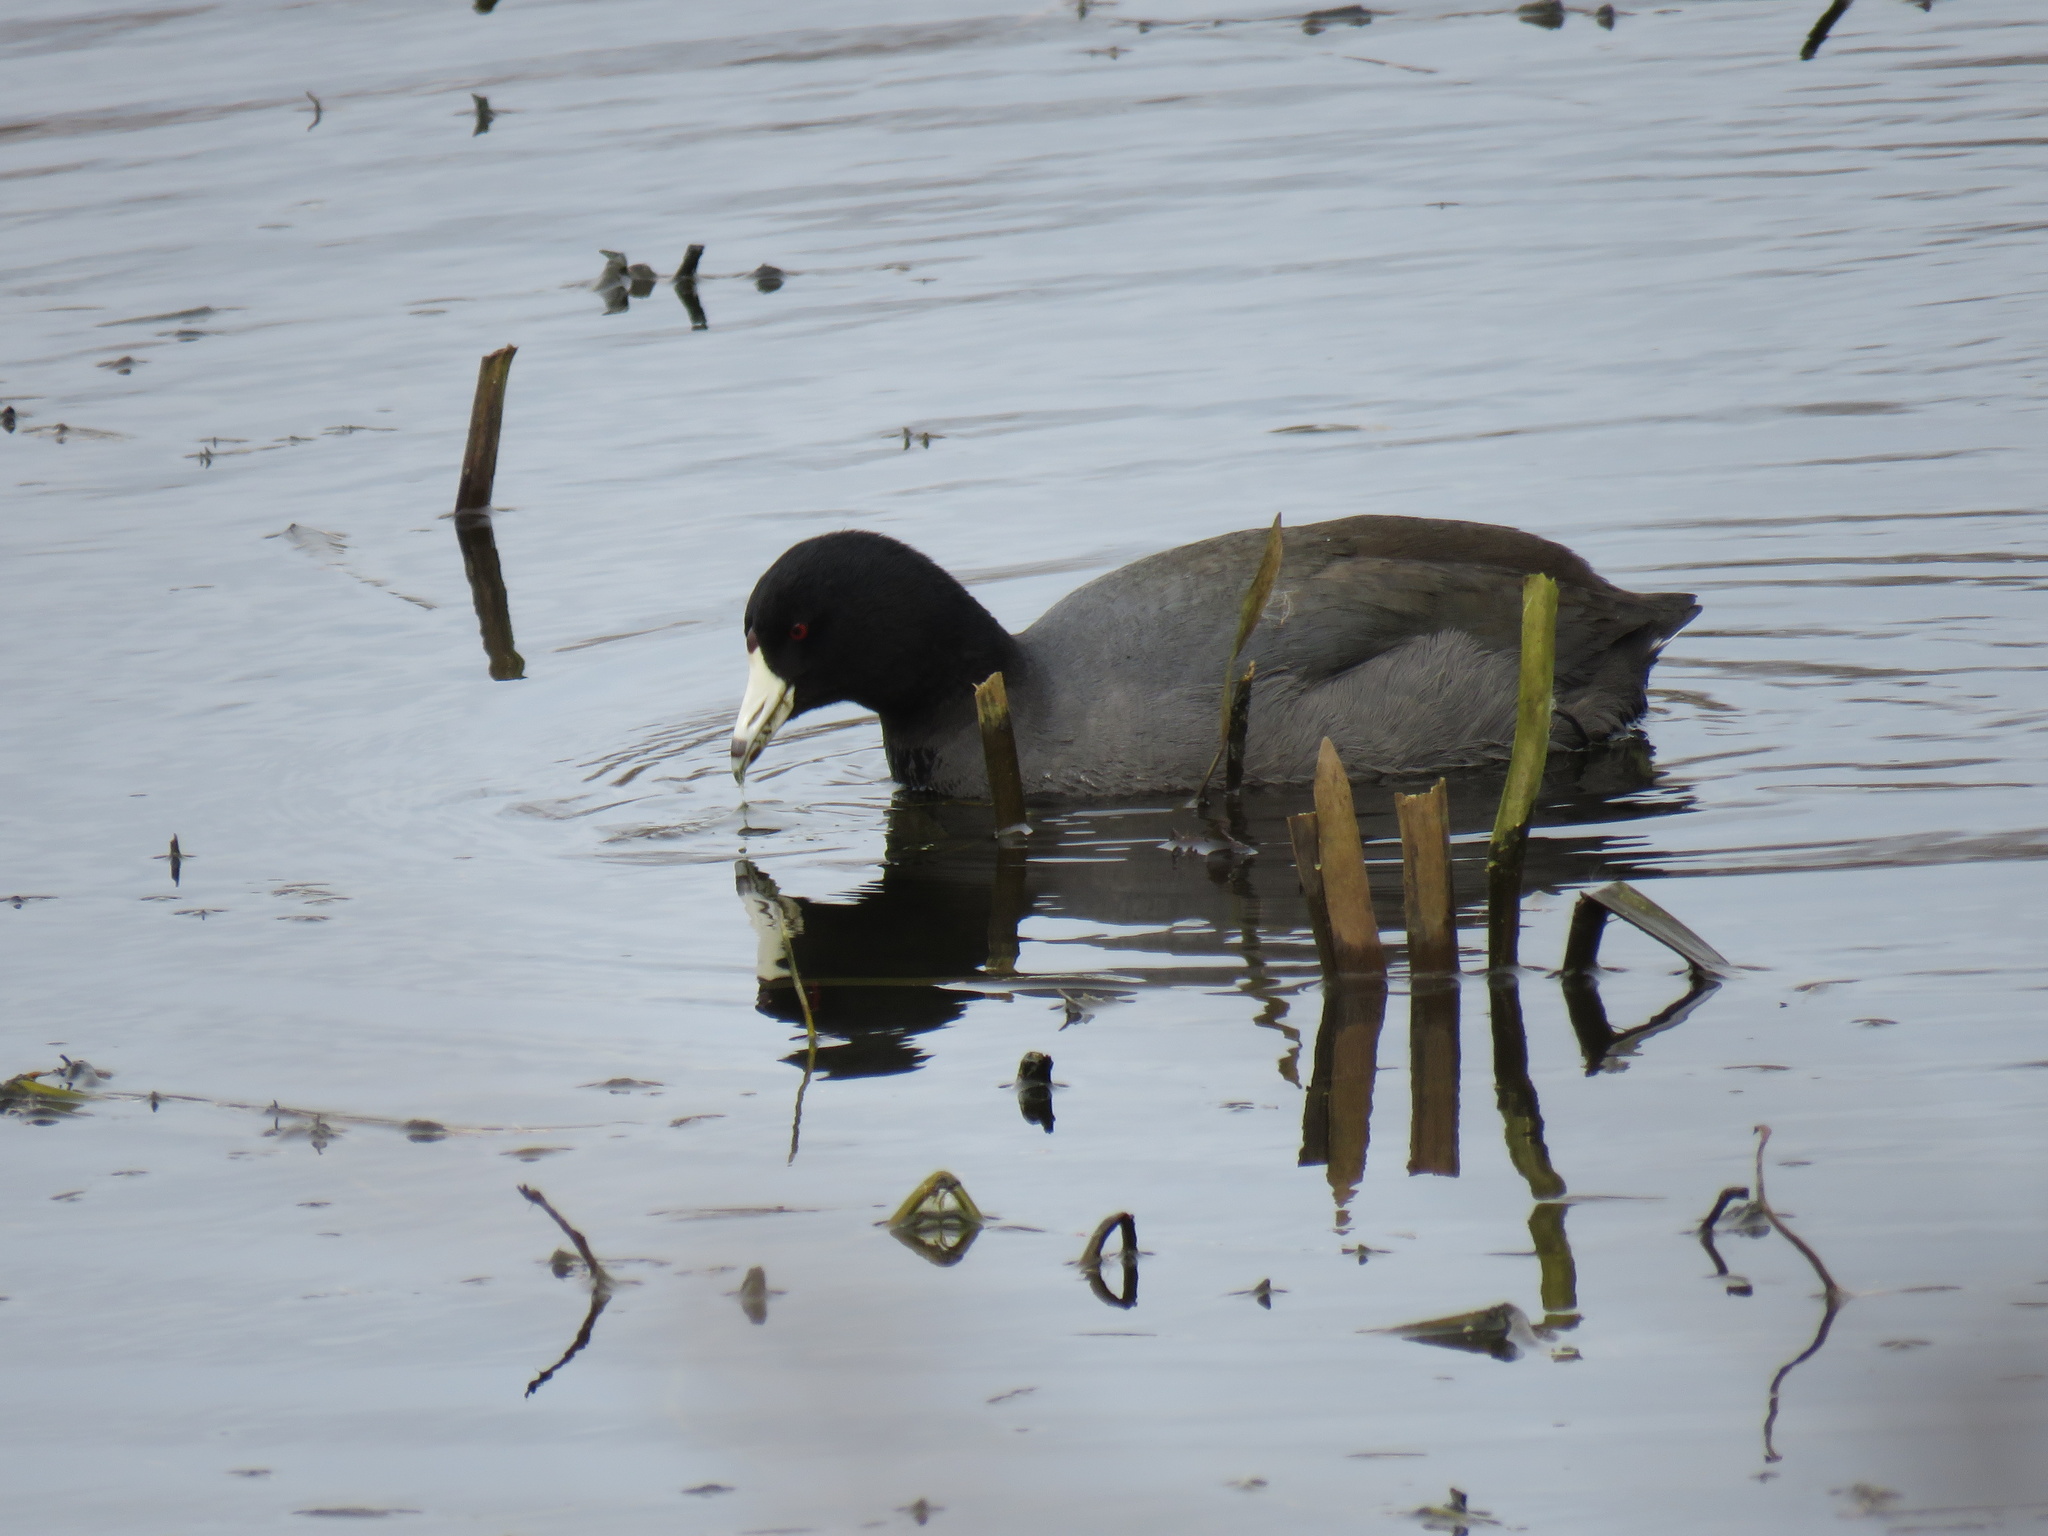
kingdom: Animalia
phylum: Chordata
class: Aves
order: Gruiformes
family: Rallidae
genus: Fulica
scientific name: Fulica americana
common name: American coot
